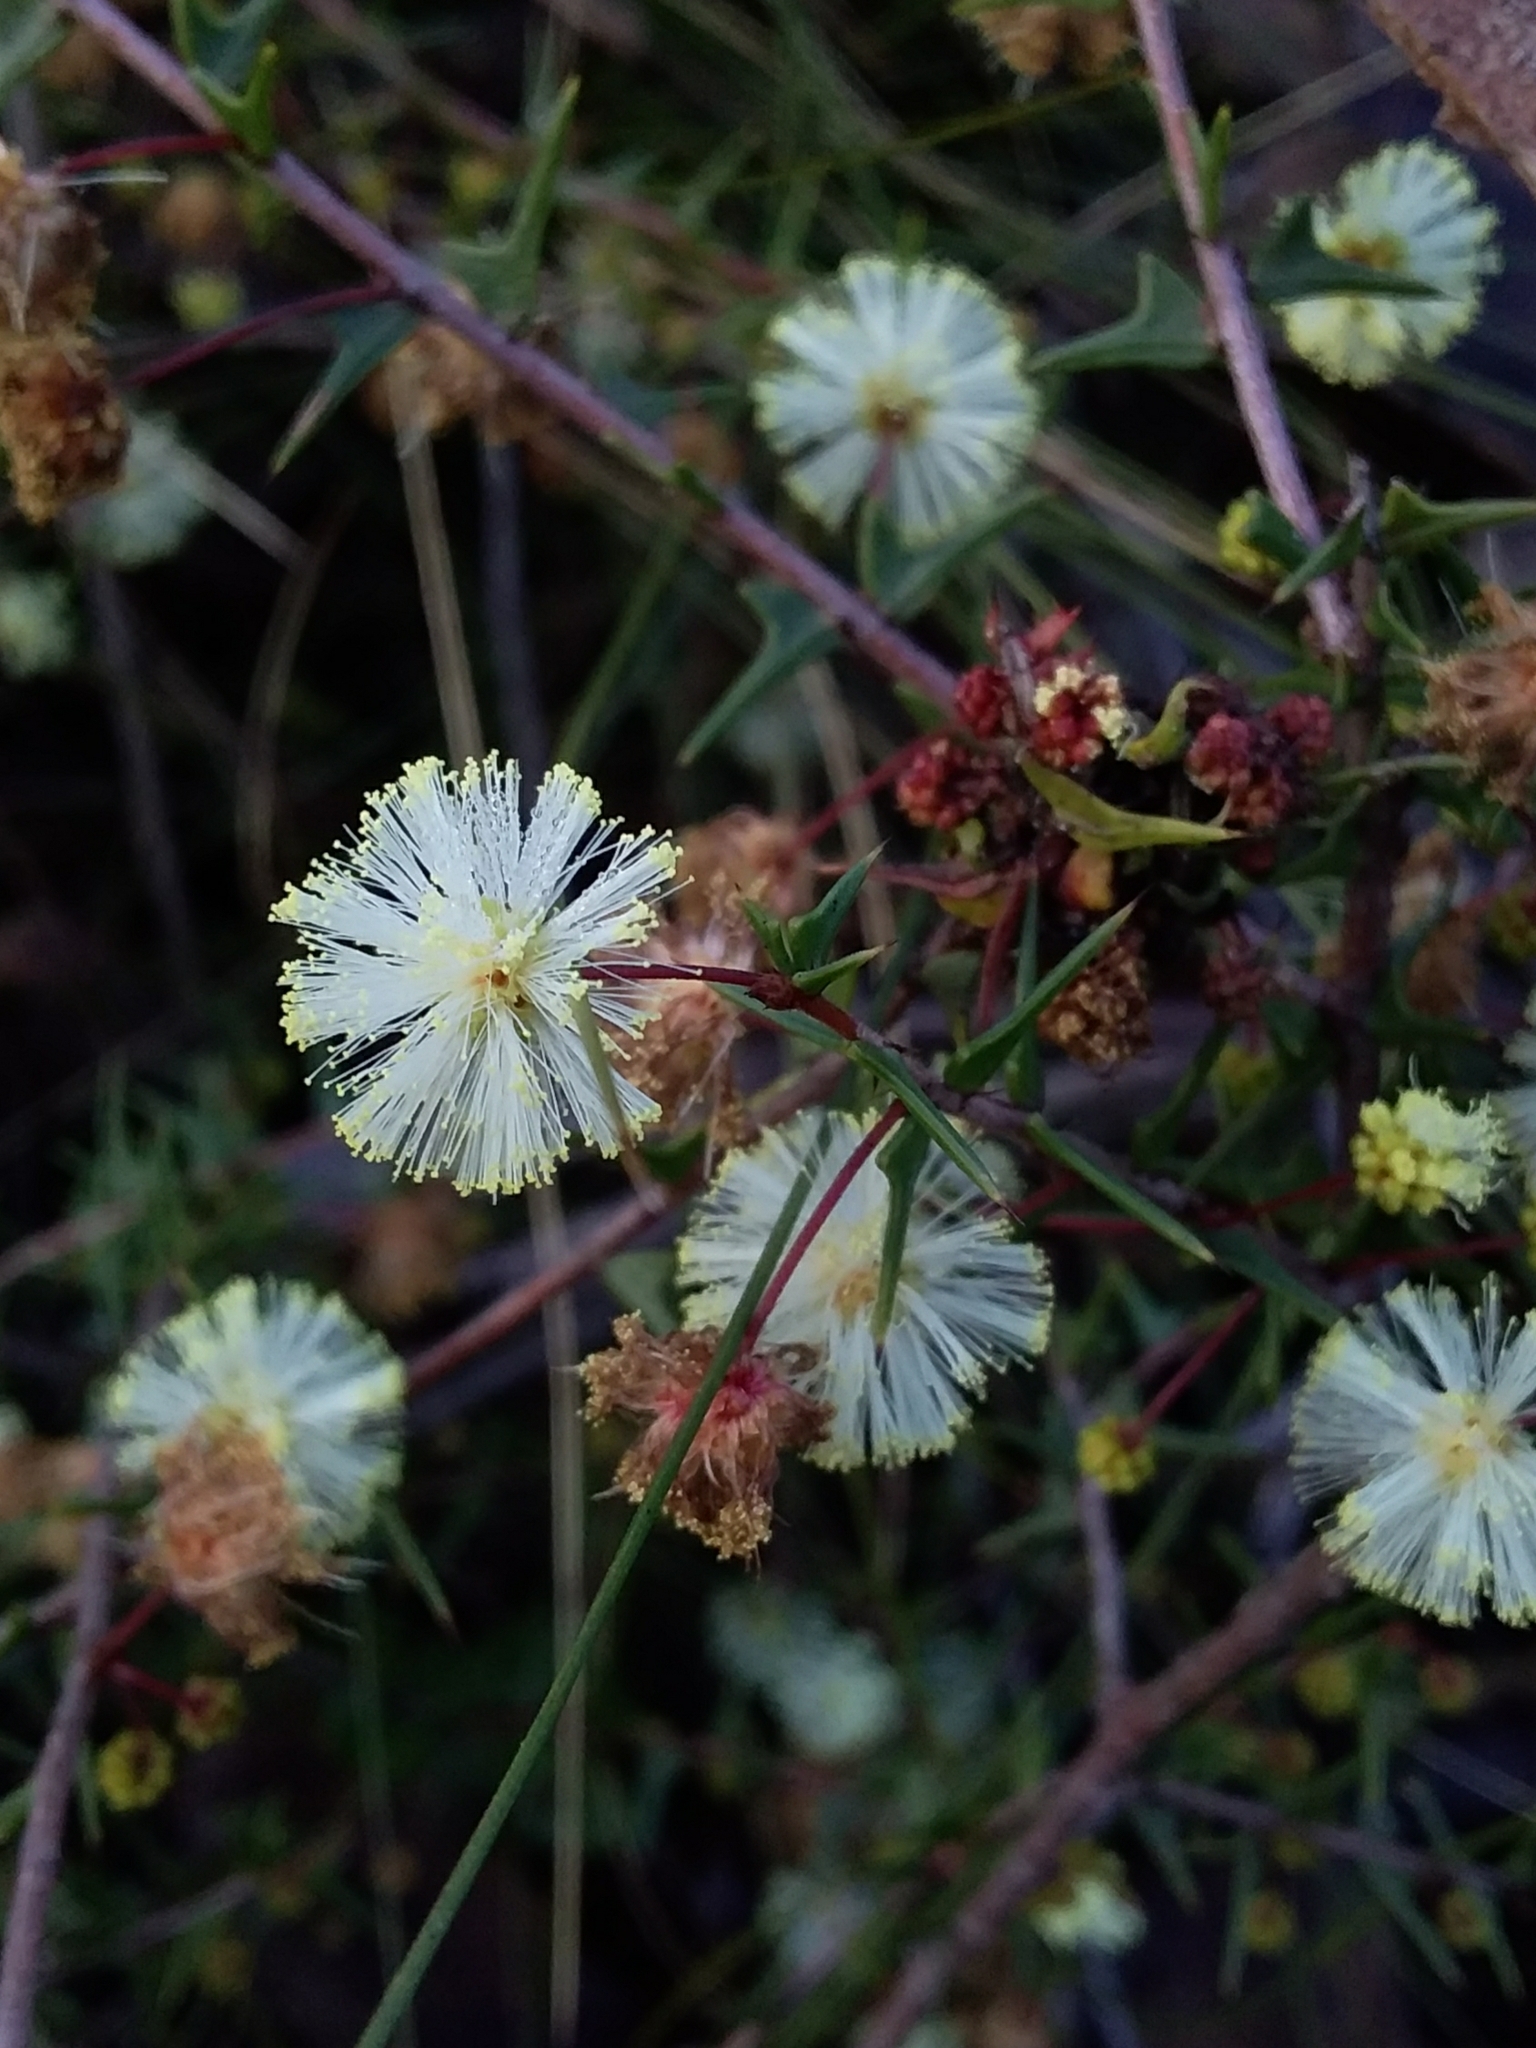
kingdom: Plantae
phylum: Tracheophyta
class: Magnoliopsida
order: Fabales
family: Fabaceae
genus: Acacia
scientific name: Acacia gunnii
